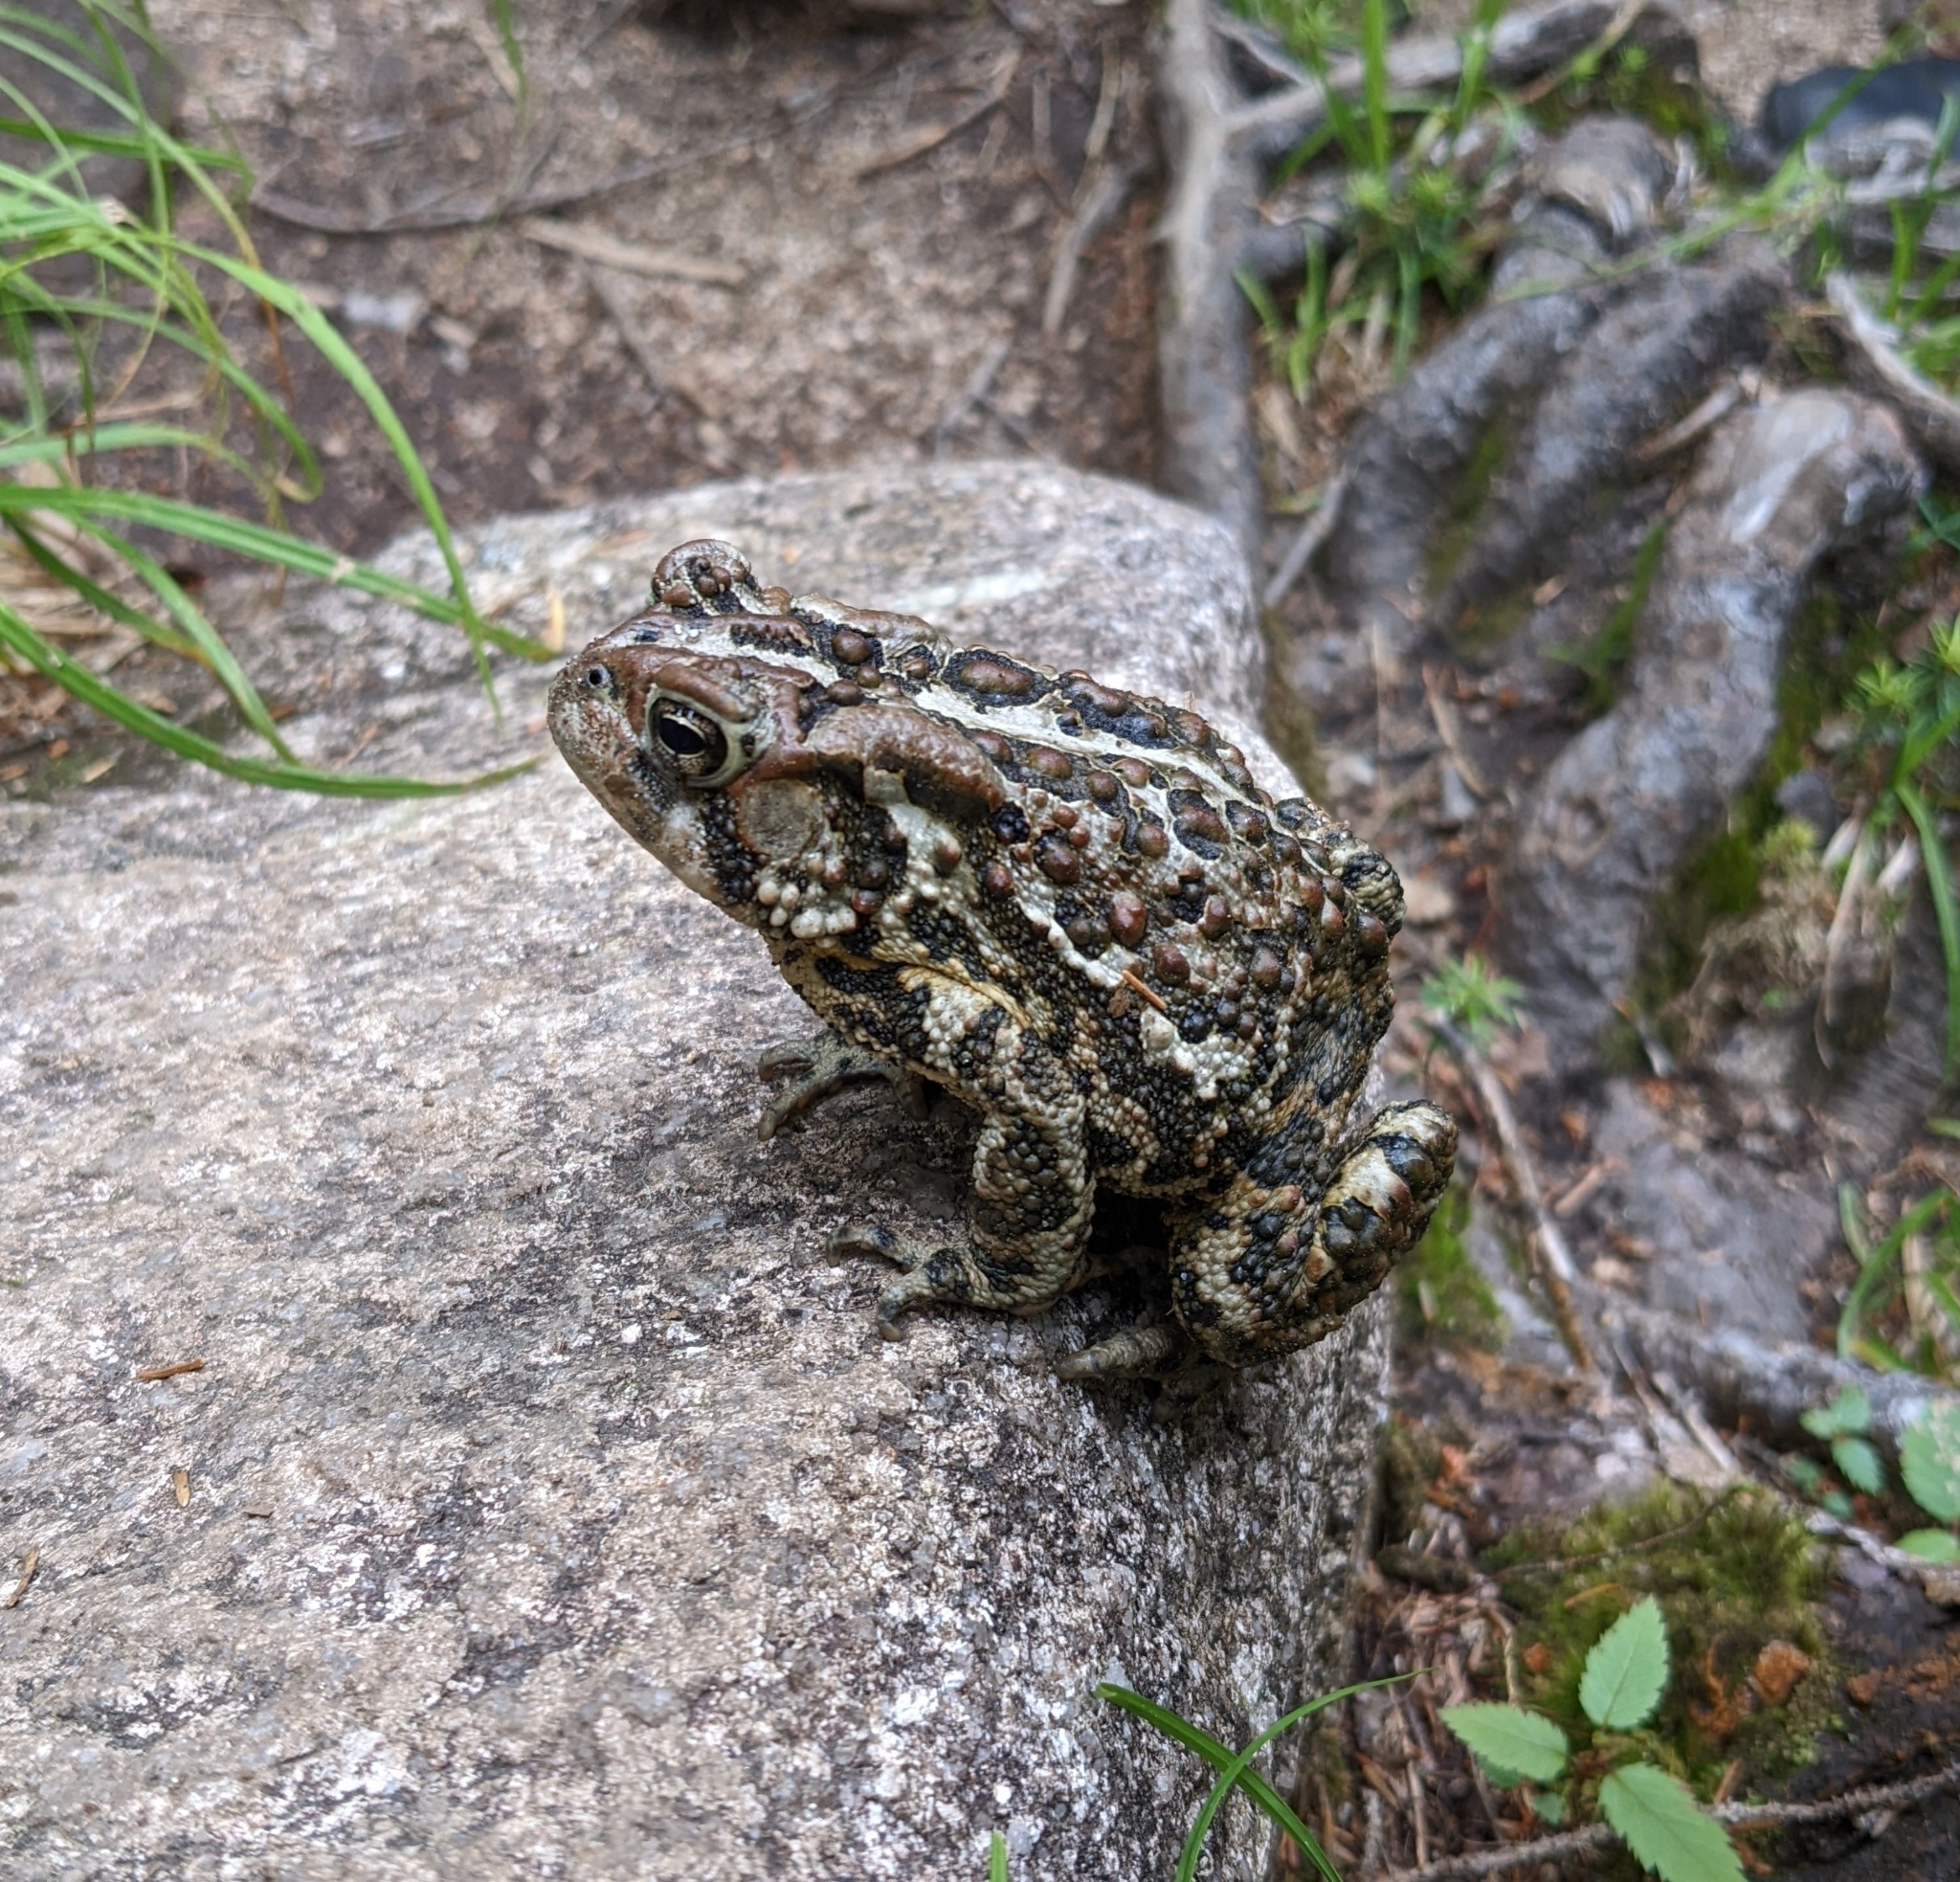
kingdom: Animalia
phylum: Chordata
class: Amphibia
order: Anura
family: Bufonidae
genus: Anaxyrus
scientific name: Anaxyrus americanus
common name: American toad
